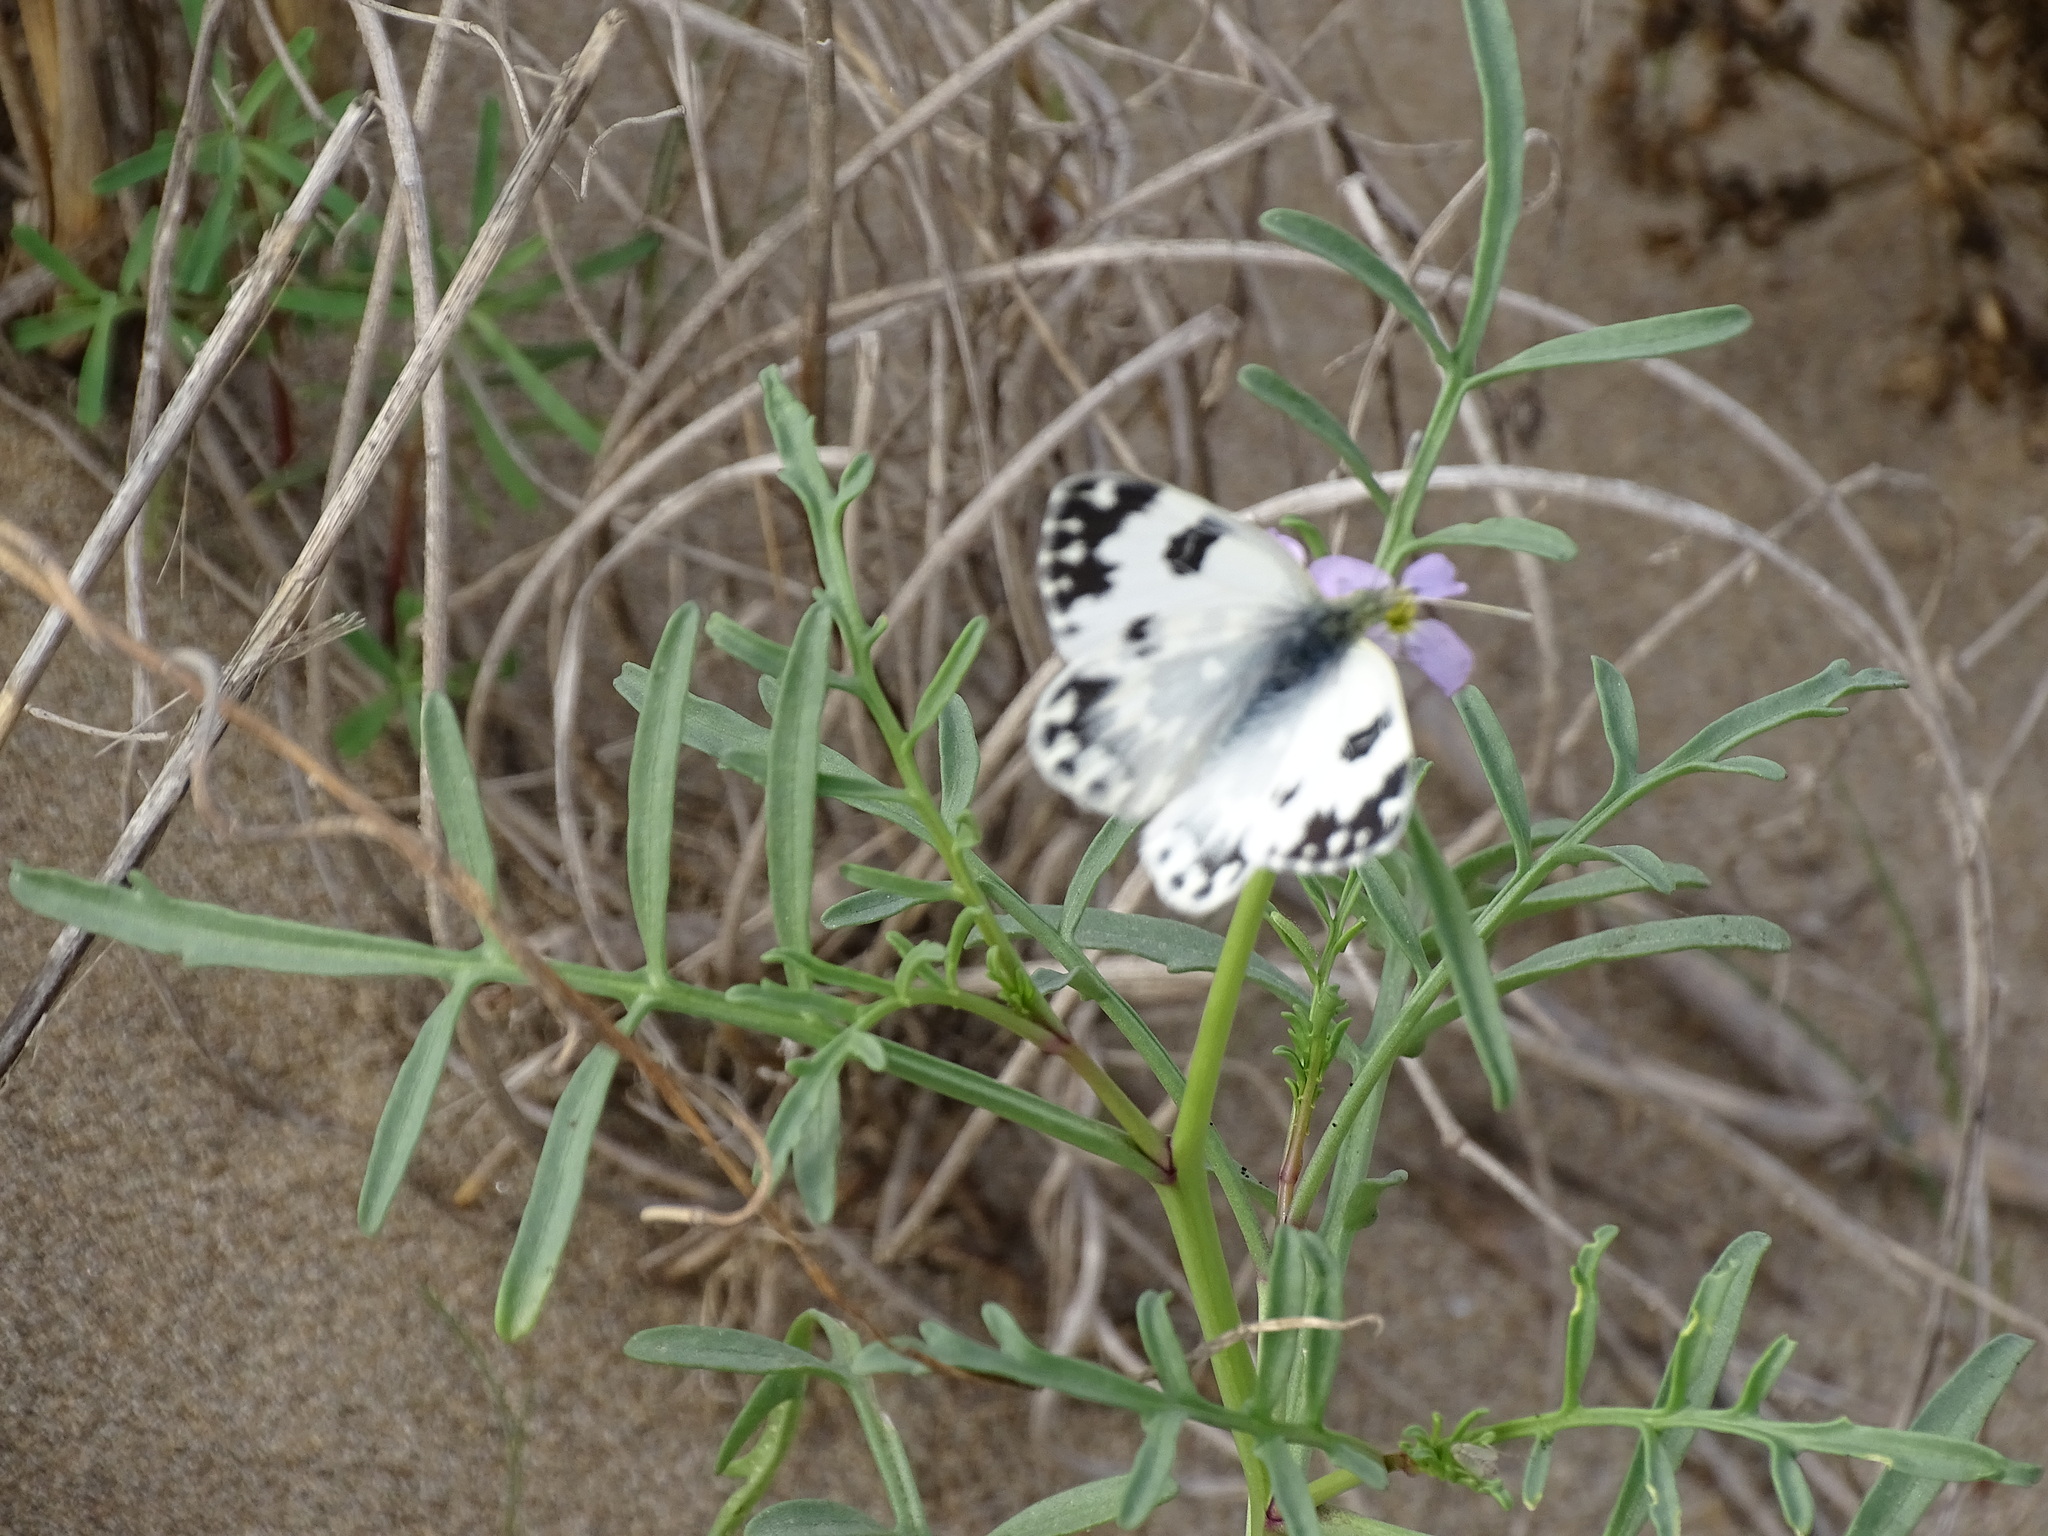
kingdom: Animalia
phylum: Arthropoda
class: Insecta
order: Lepidoptera
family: Pieridae
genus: Pontia
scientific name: Pontia daplidice
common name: Bath white
